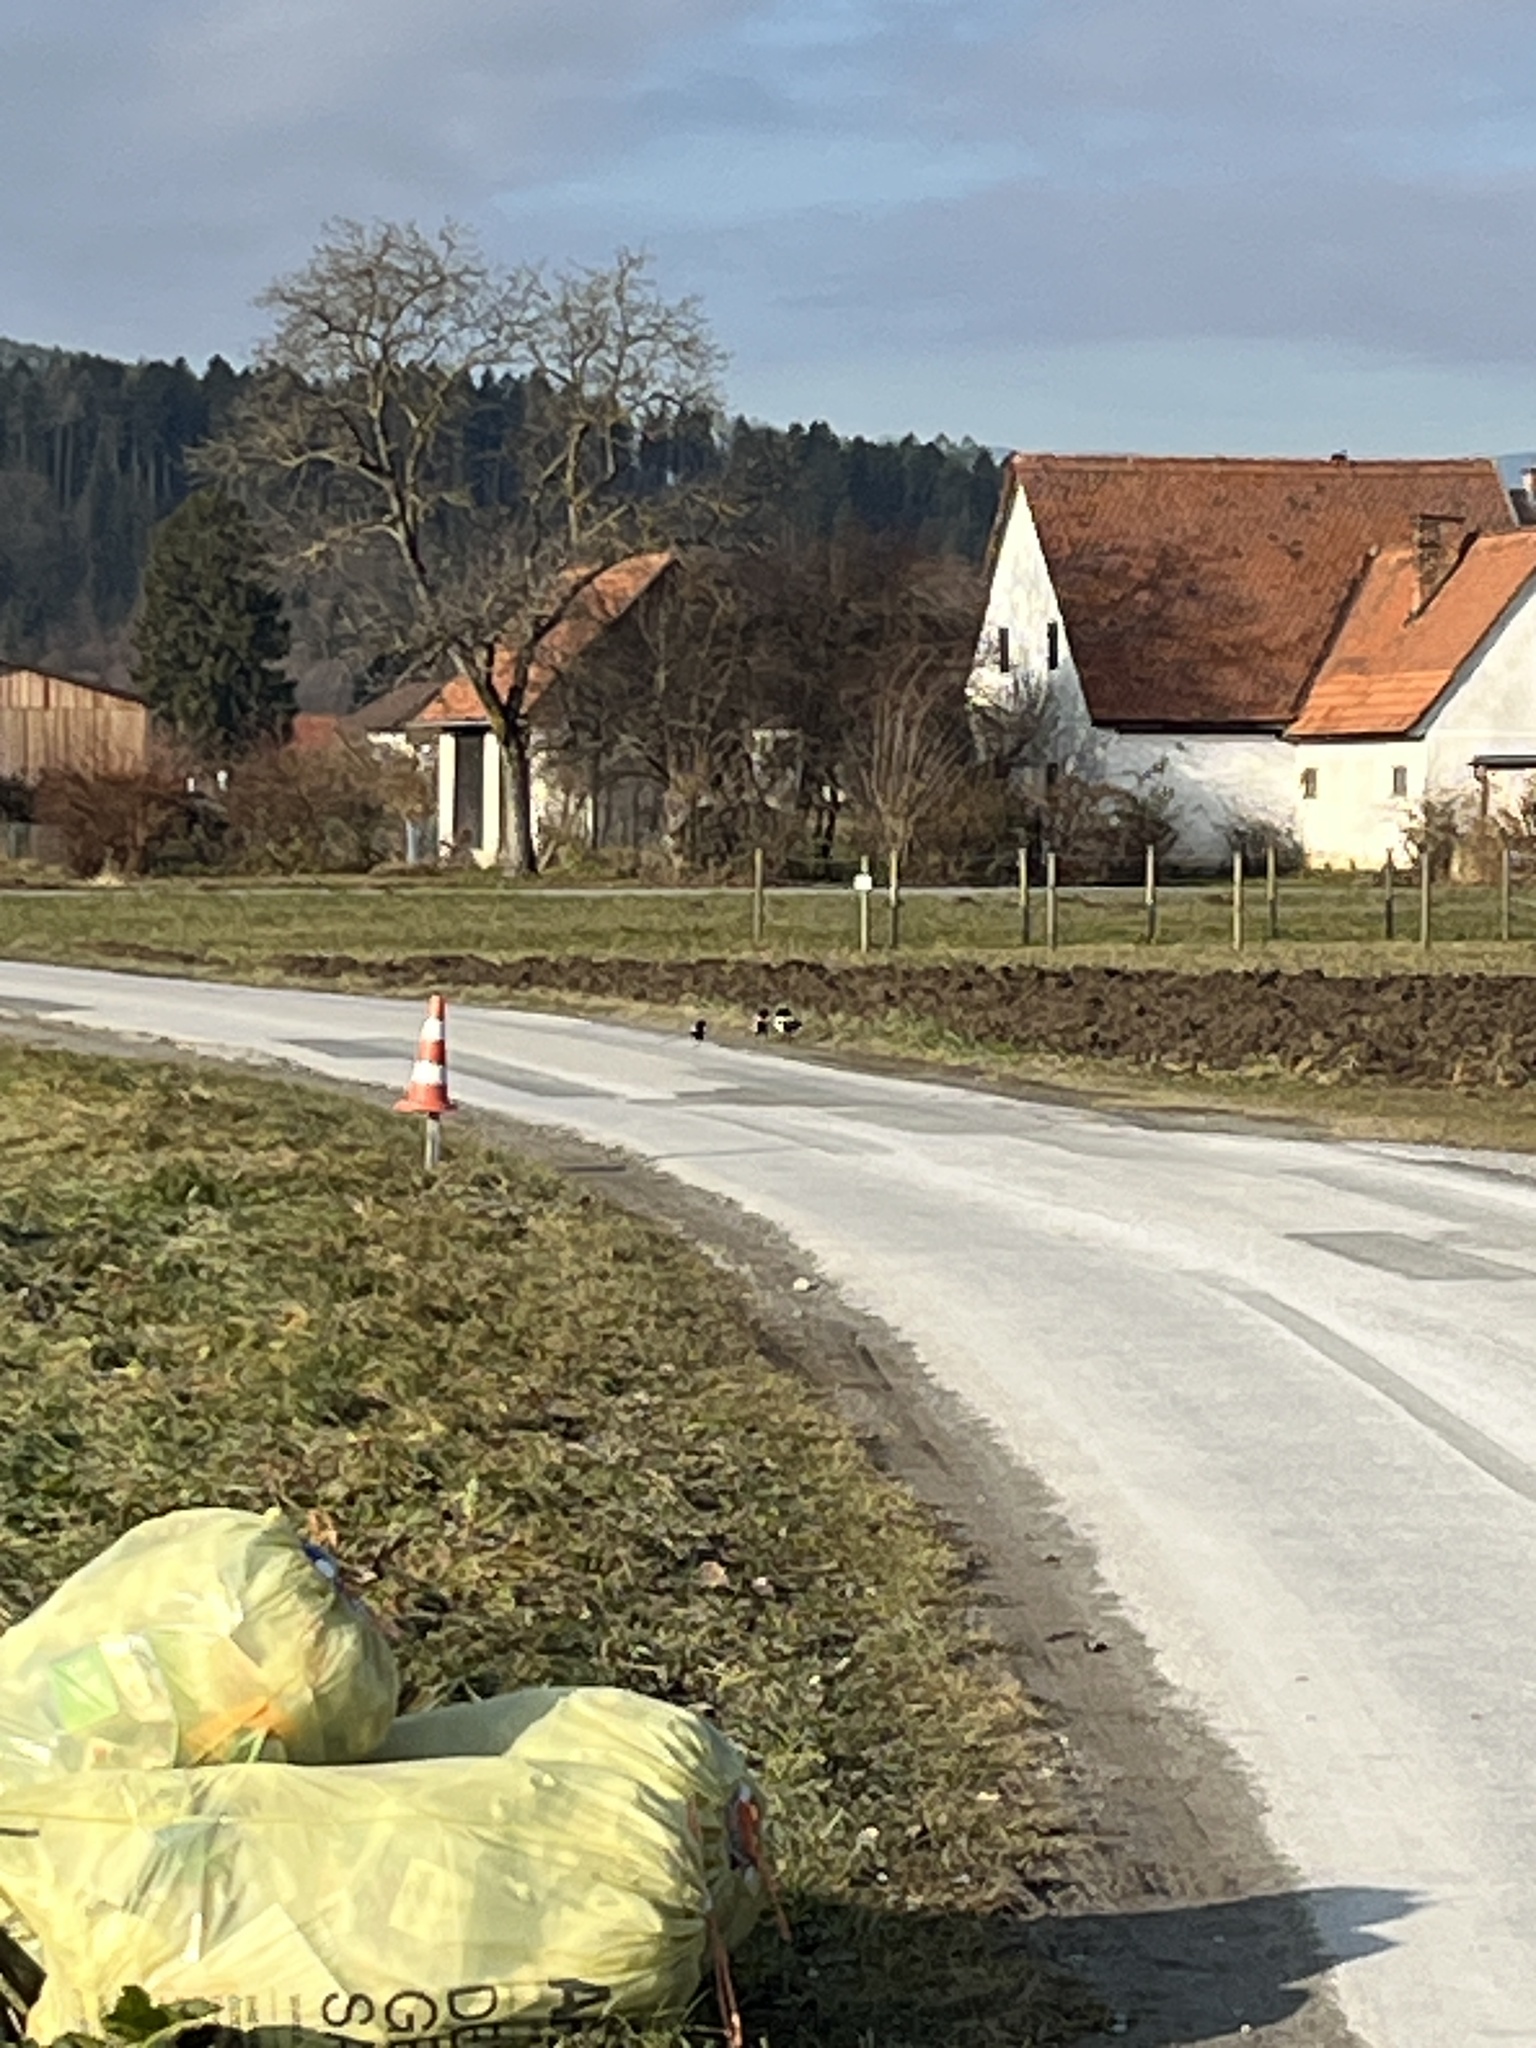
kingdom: Animalia
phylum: Chordata
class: Aves
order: Passeriformes
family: Corvidae
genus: Pica
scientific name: Pica pica
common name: Eurasian magpie
